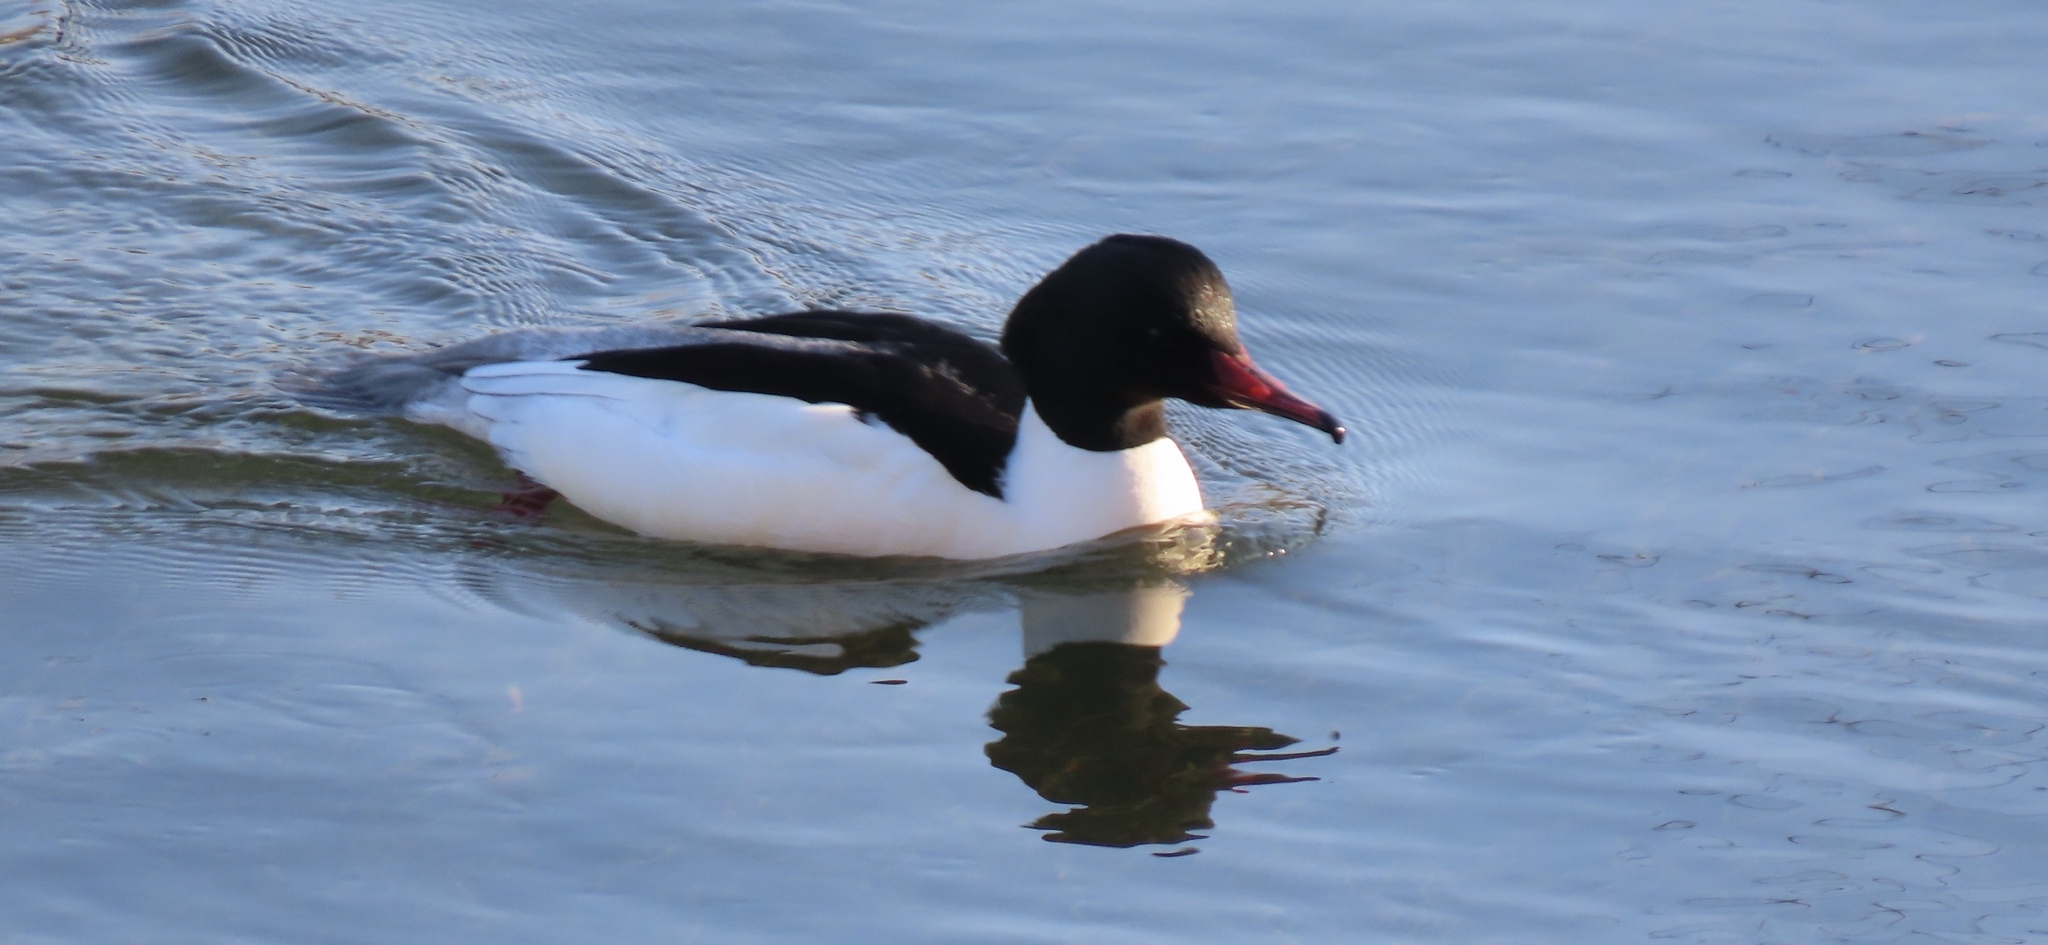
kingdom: Animalia
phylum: Chordata
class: Aves
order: Anseriformes
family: Anatidae
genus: Mergus
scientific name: Mergus merganser
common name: Common merganser
